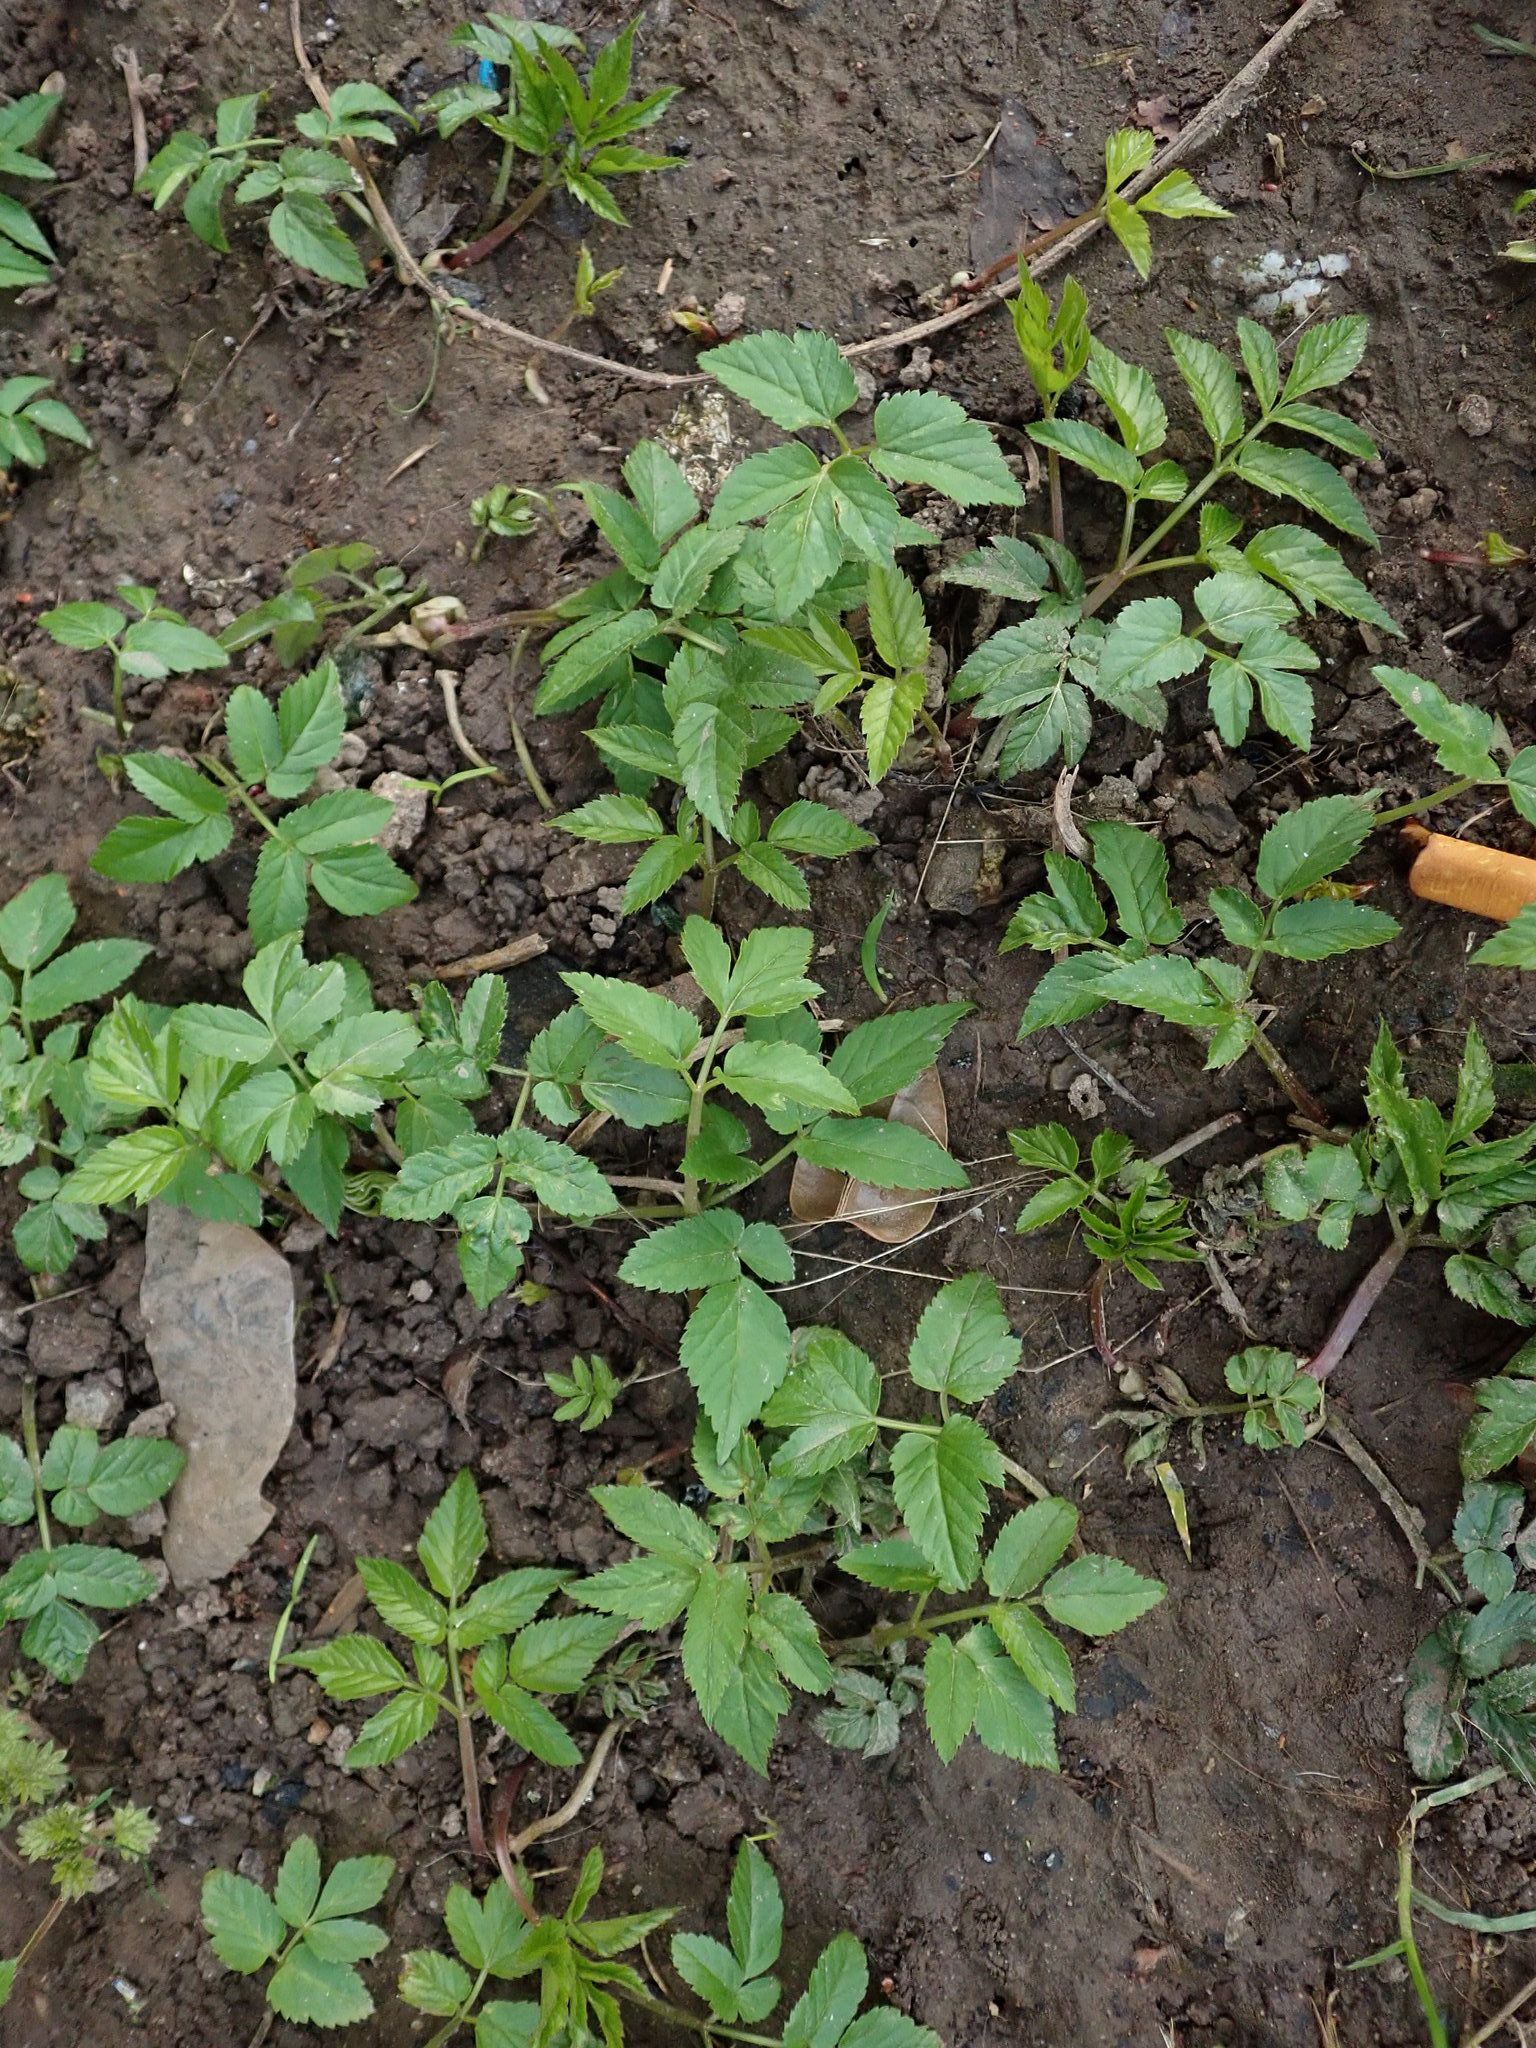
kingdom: Plantae
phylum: Tracheophyta
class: Magnoliopsida
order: Apiales
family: Apiaceae
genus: Aegopodium
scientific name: Aegopodium podagraria
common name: Ground-elder
